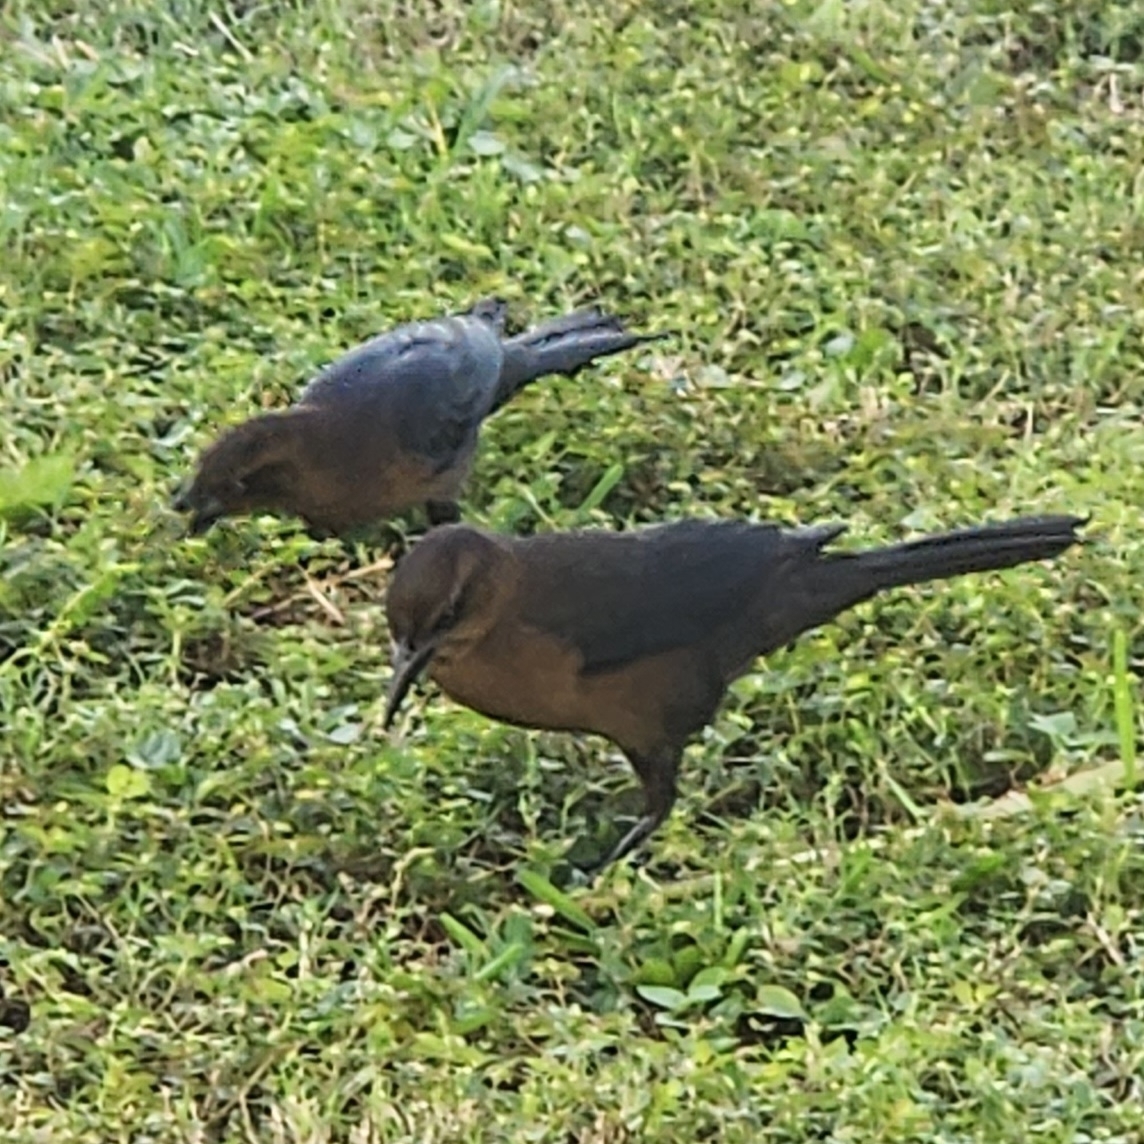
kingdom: Animalia
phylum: Chordata
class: Aves
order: Passeriformes
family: Icteridae
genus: Quiscalus
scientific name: Quiscalus mexicanus
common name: Great-tailed grackle
